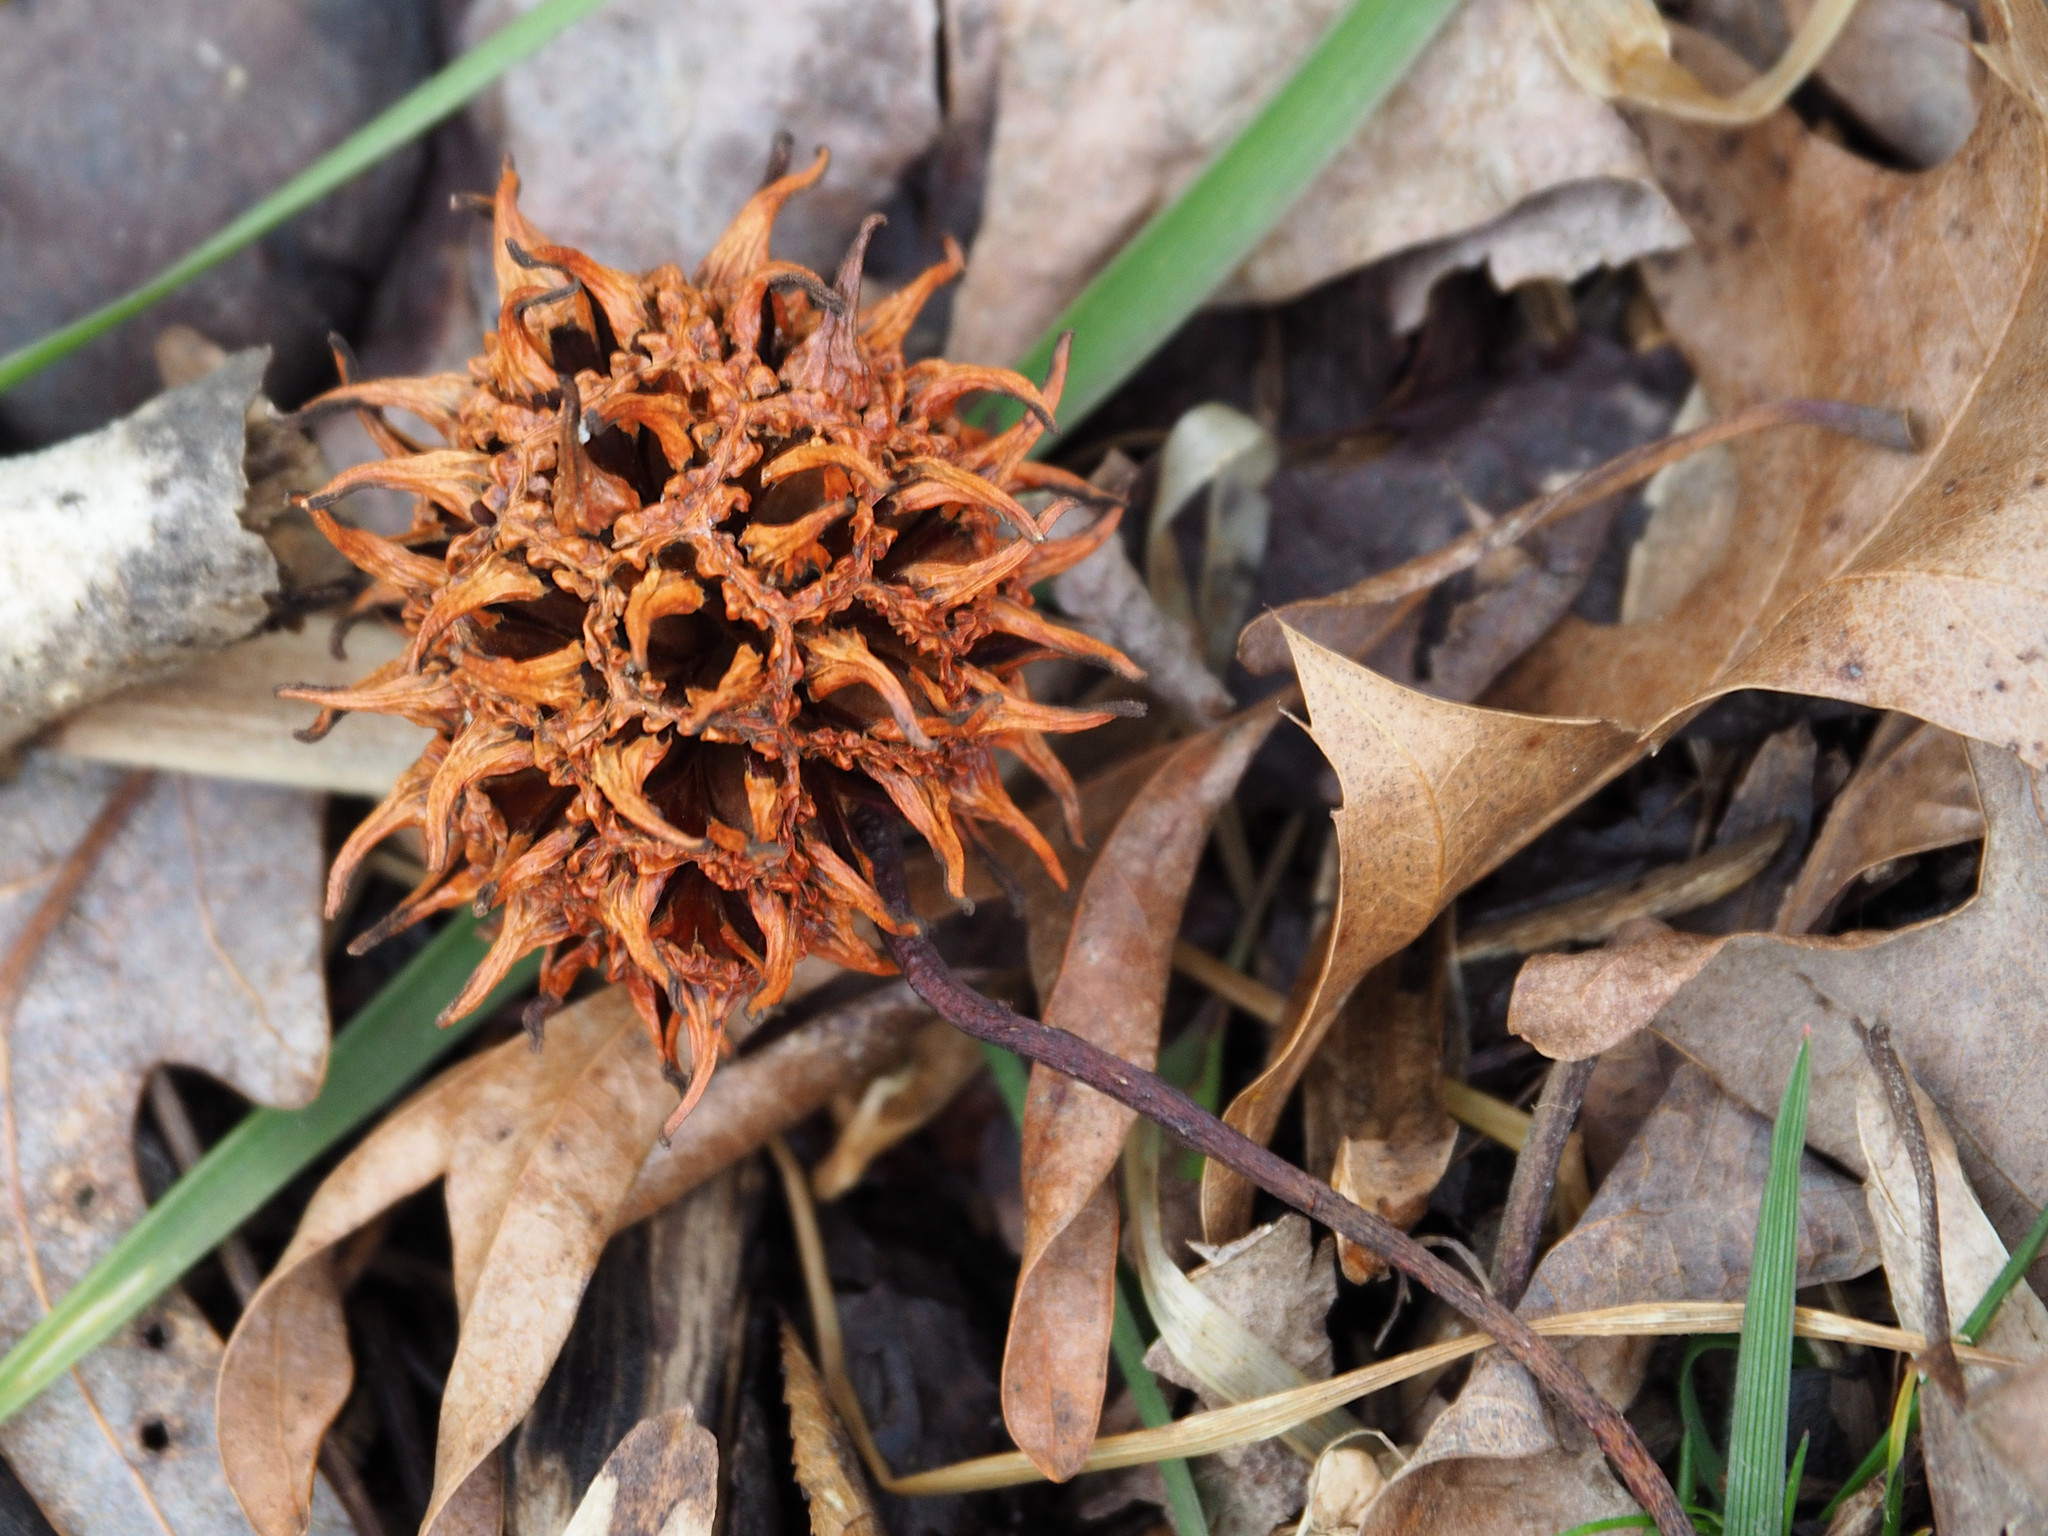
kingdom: Plantae
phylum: Tracheophyta
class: Magnoliopsida
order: Saxifragales
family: Altingiaceae
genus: Liquidambar
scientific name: Liquidambar styraciflua
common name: Sweet gum
